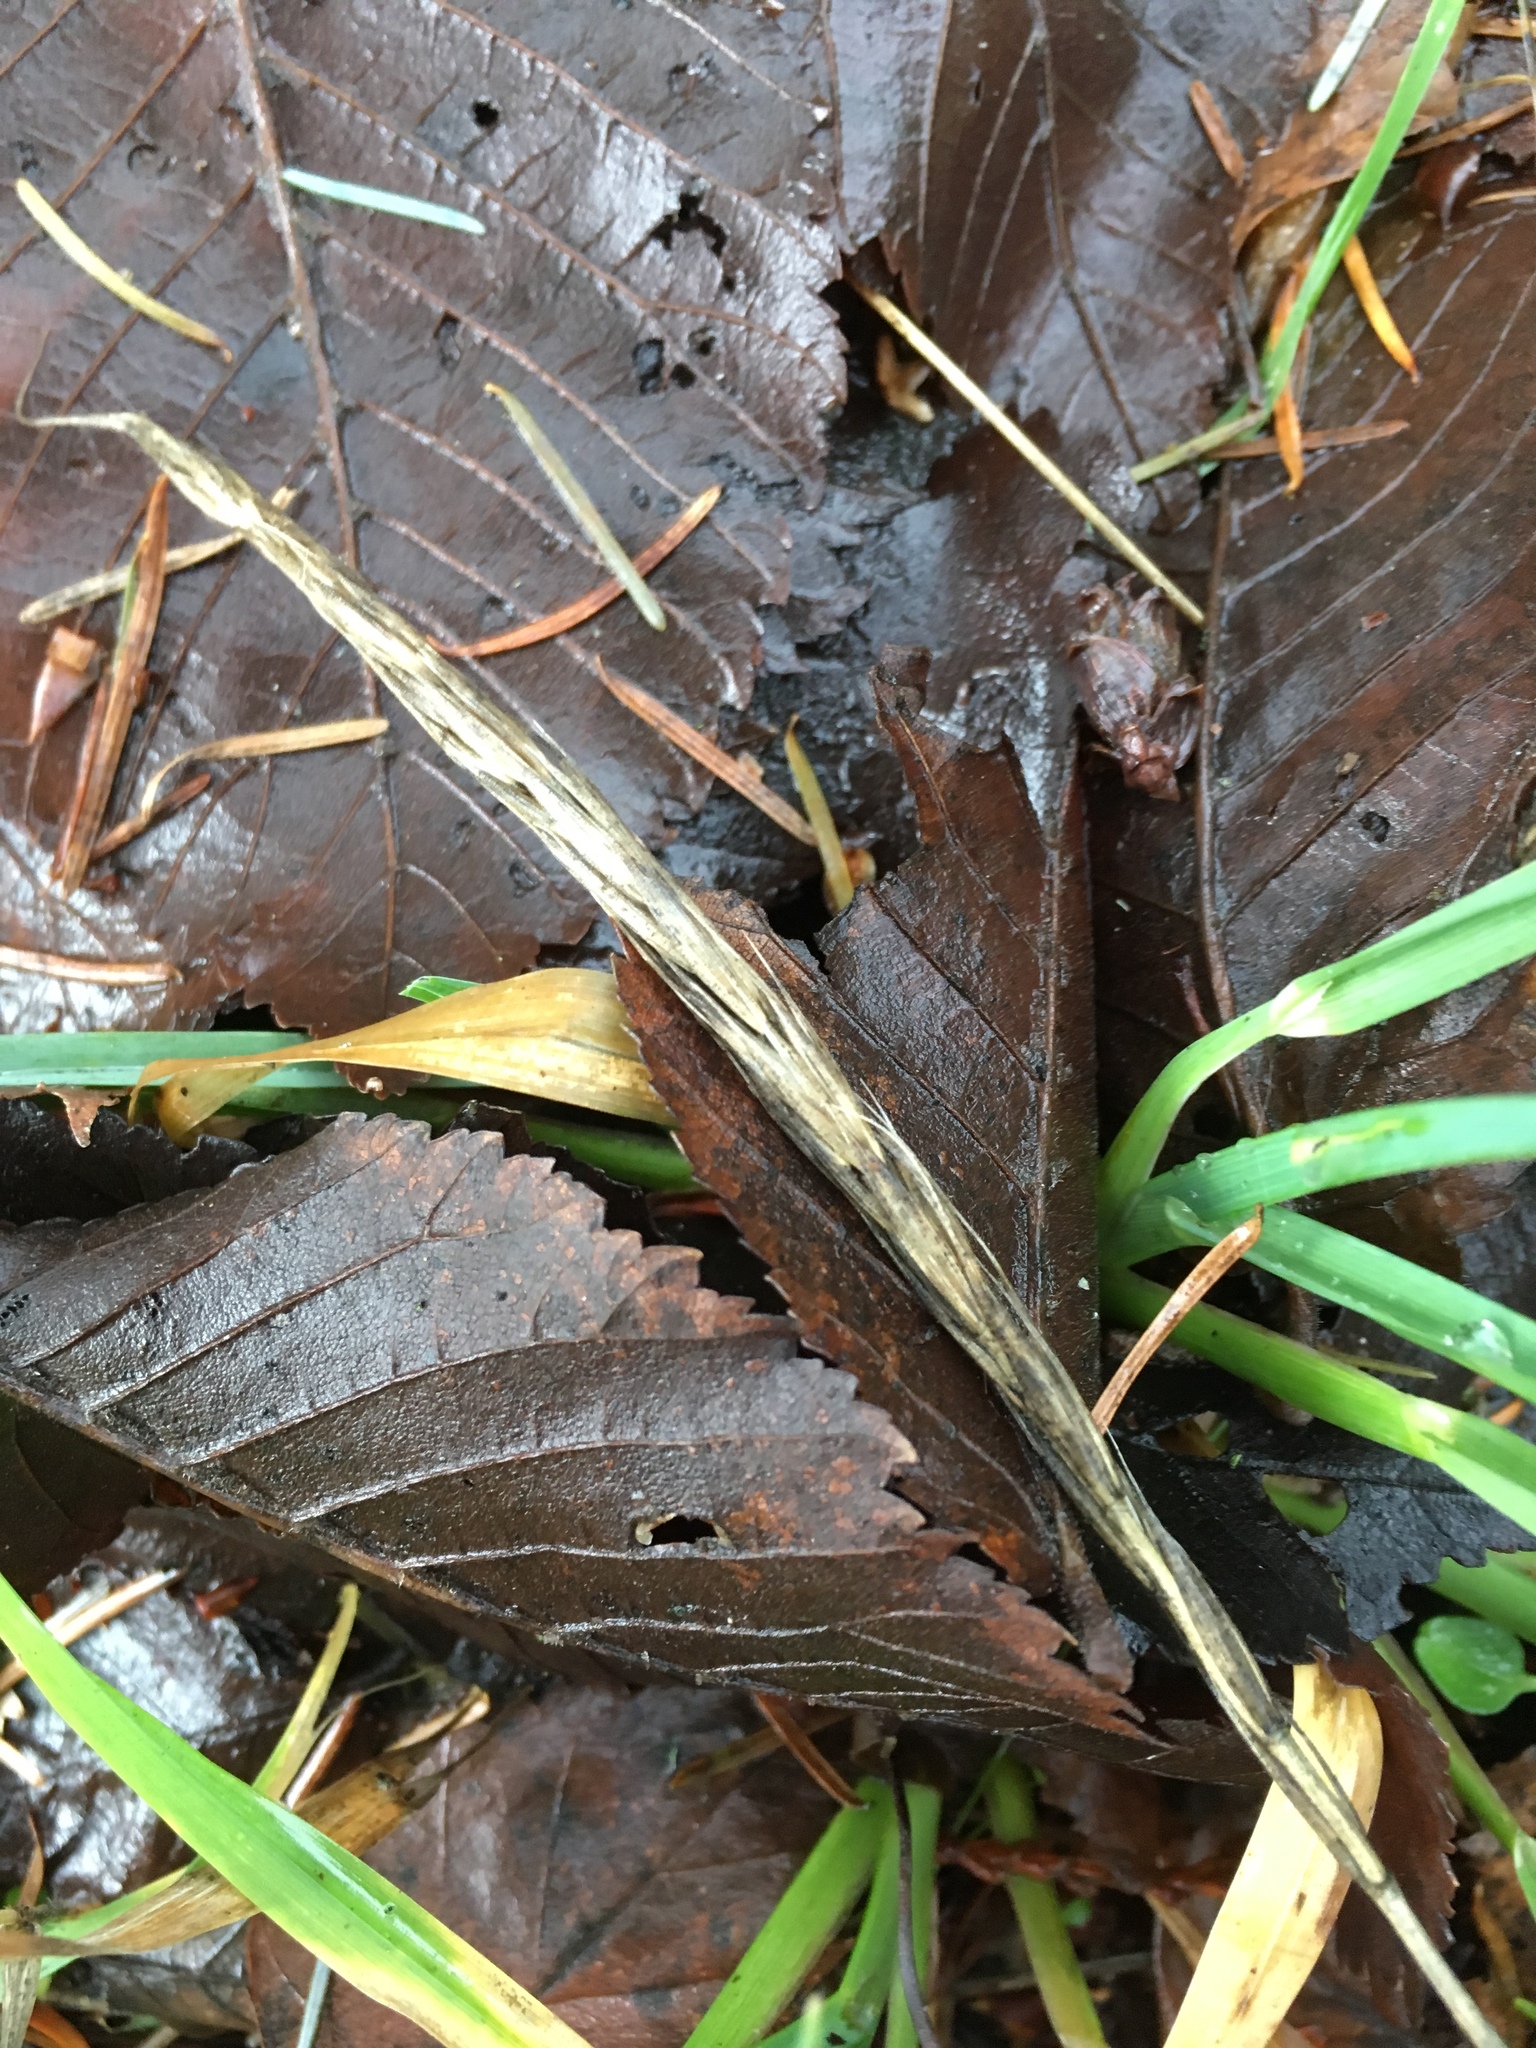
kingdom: Plantae
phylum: Tracheophyta
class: Liliopsida
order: Poales
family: Poaceae
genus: Elymus
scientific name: Elymus glaucus
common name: Blue wild rye
